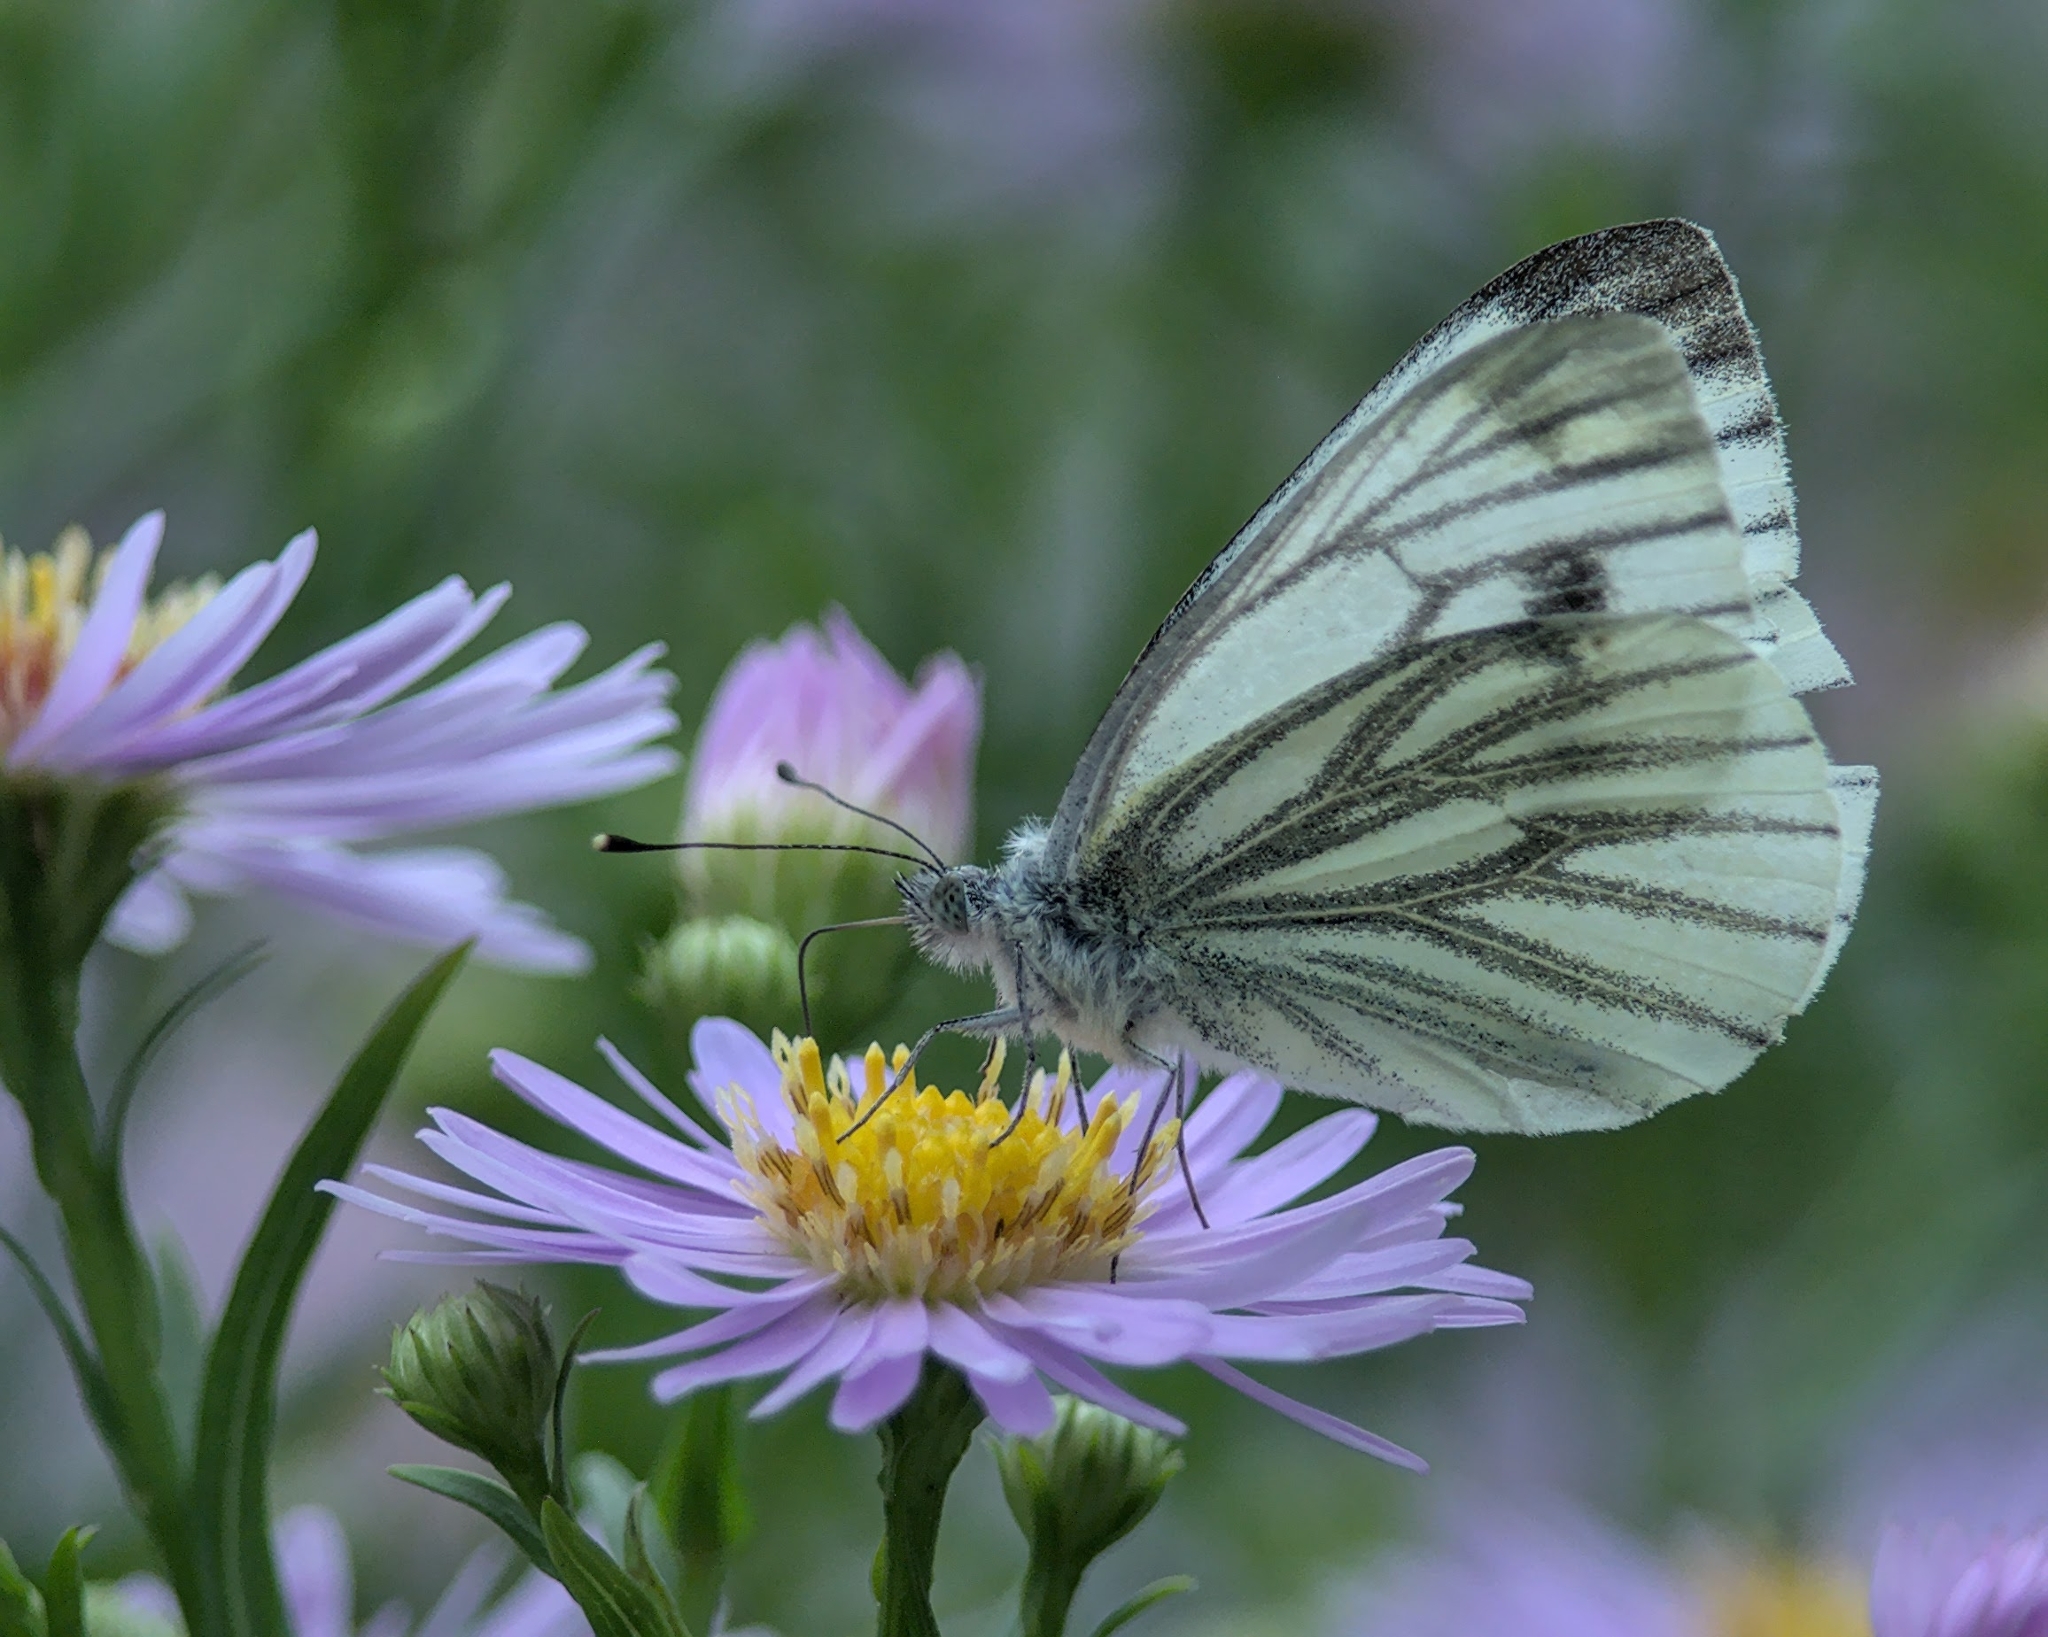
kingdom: Animalia
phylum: Arthropoda
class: Insecta
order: Lepidoptera
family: Pieridae
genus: Pieris
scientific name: Pieris napi
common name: Green-veined white
